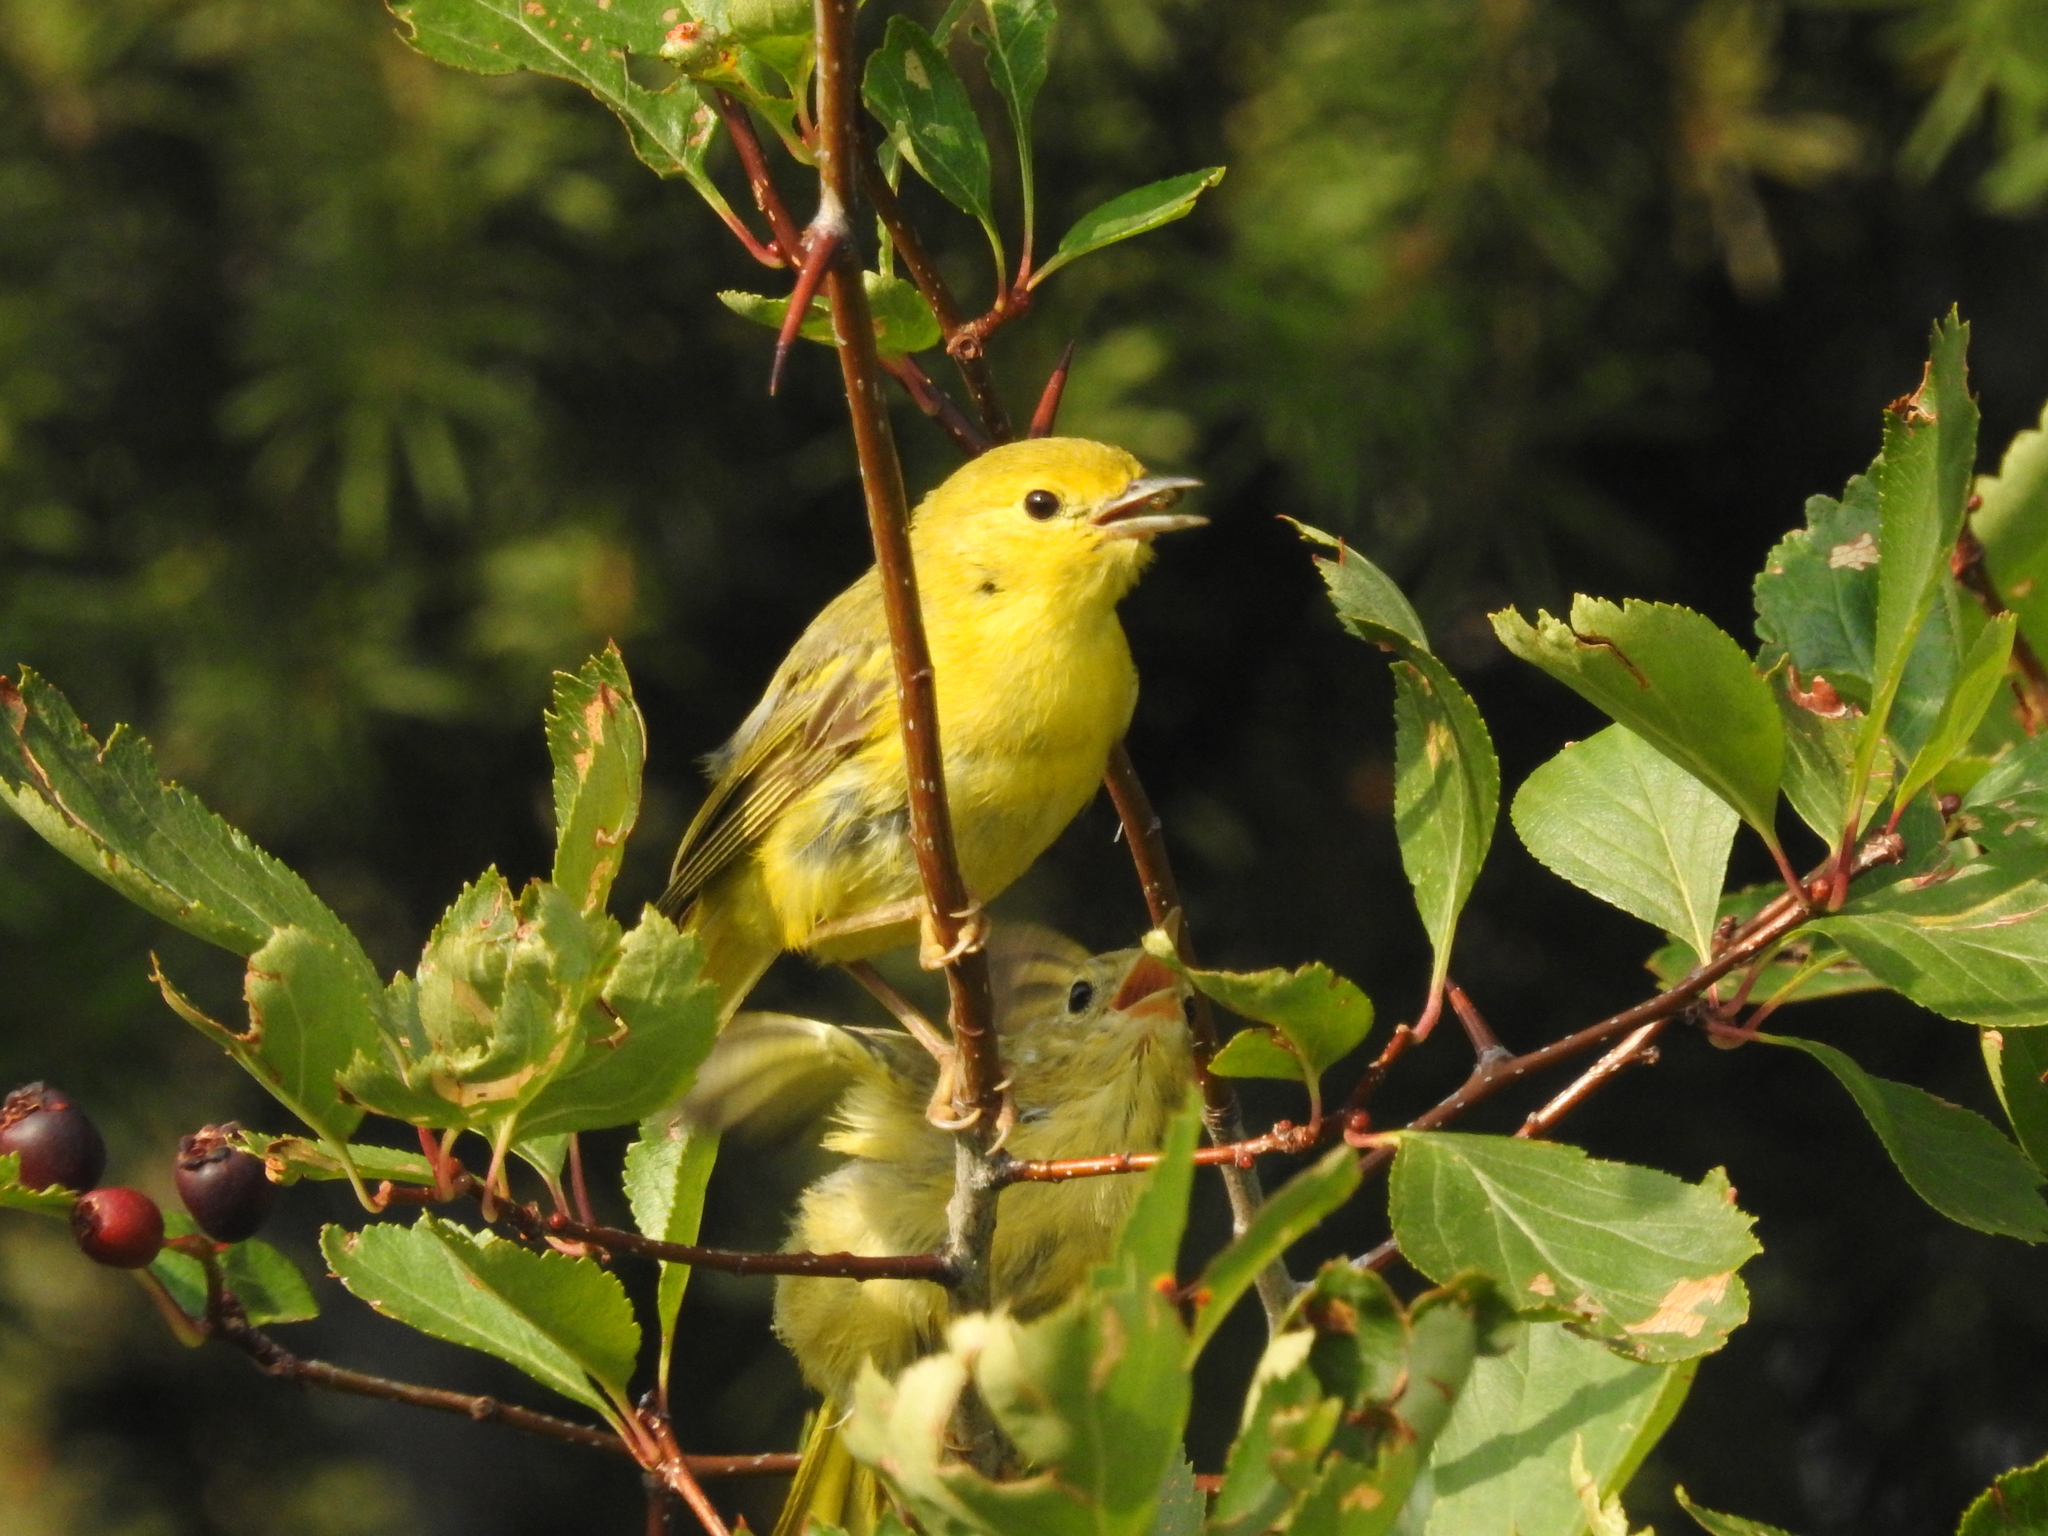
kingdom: Animalia
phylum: Chordata
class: Aves
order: Passeriformes
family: Parulidae
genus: Setophaga
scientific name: Setophaga petechia
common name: Yellow warbler
